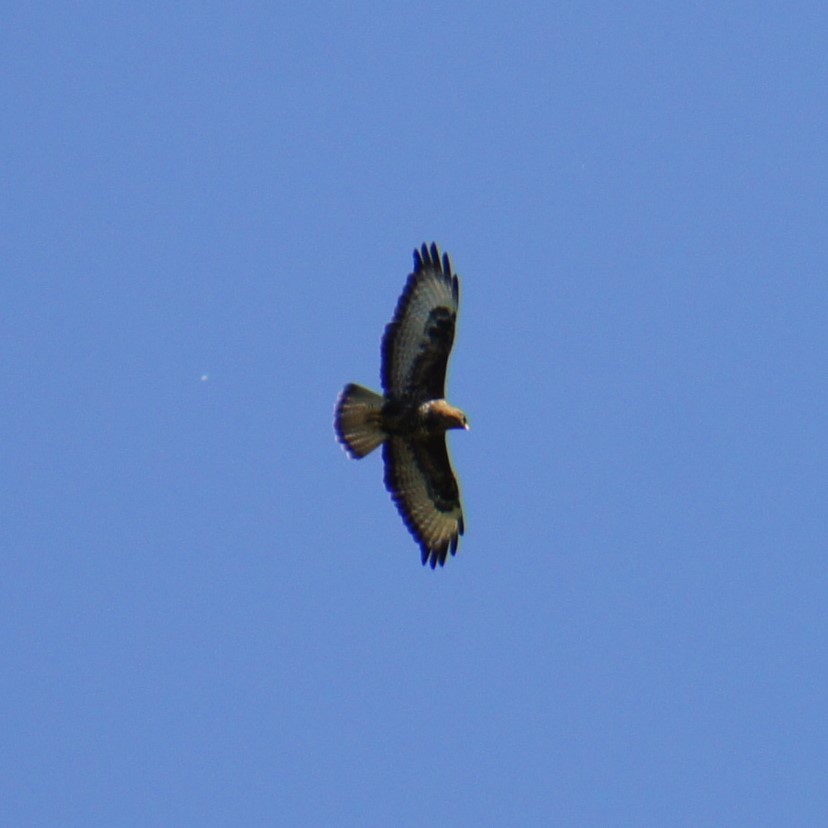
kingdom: Animalia
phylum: Chordata
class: Aves
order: Accipitriformes
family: Accipitridae
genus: Buteo
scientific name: Buteo buteo
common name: Common buzzard
